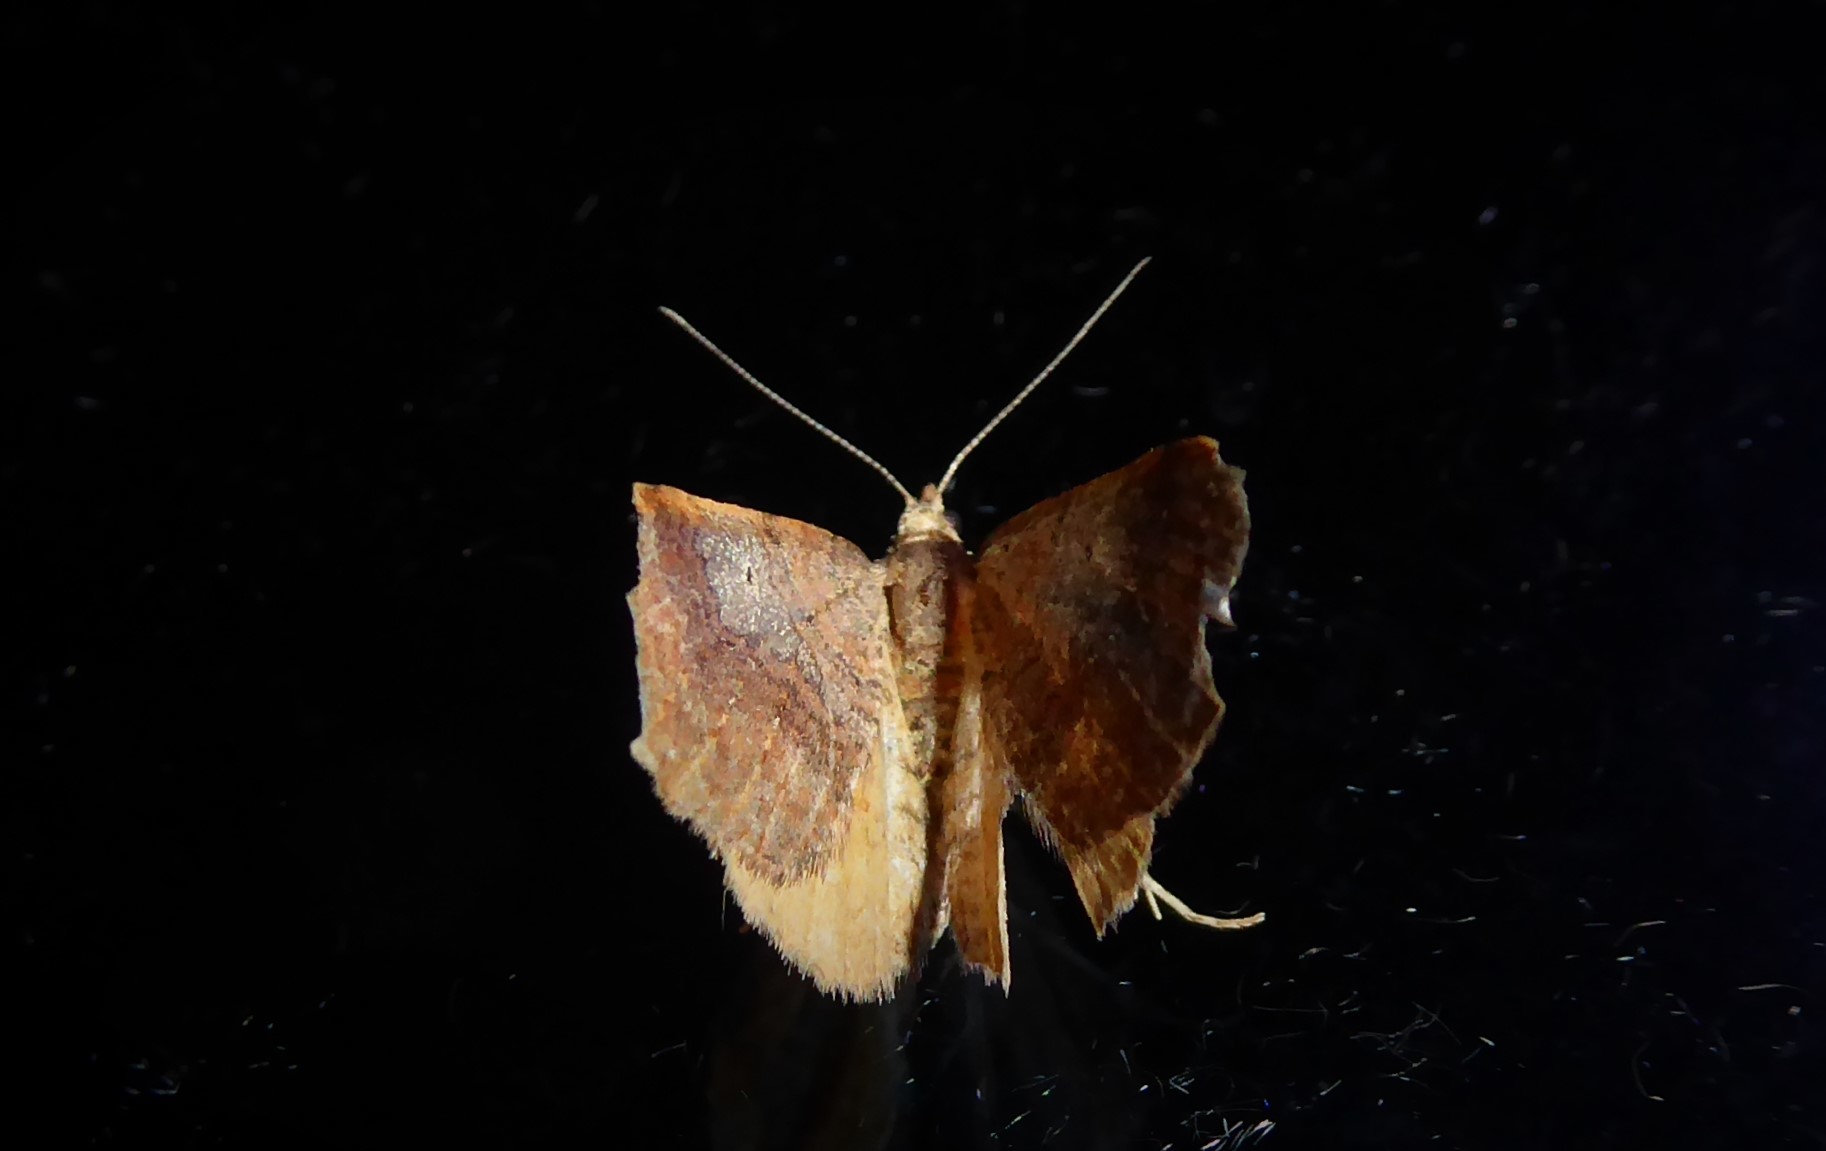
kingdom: Animalia
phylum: Arthropoda
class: Insecta
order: Lepidoptera
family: Geometridae
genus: Homodotis
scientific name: Homodotis megaspilata
